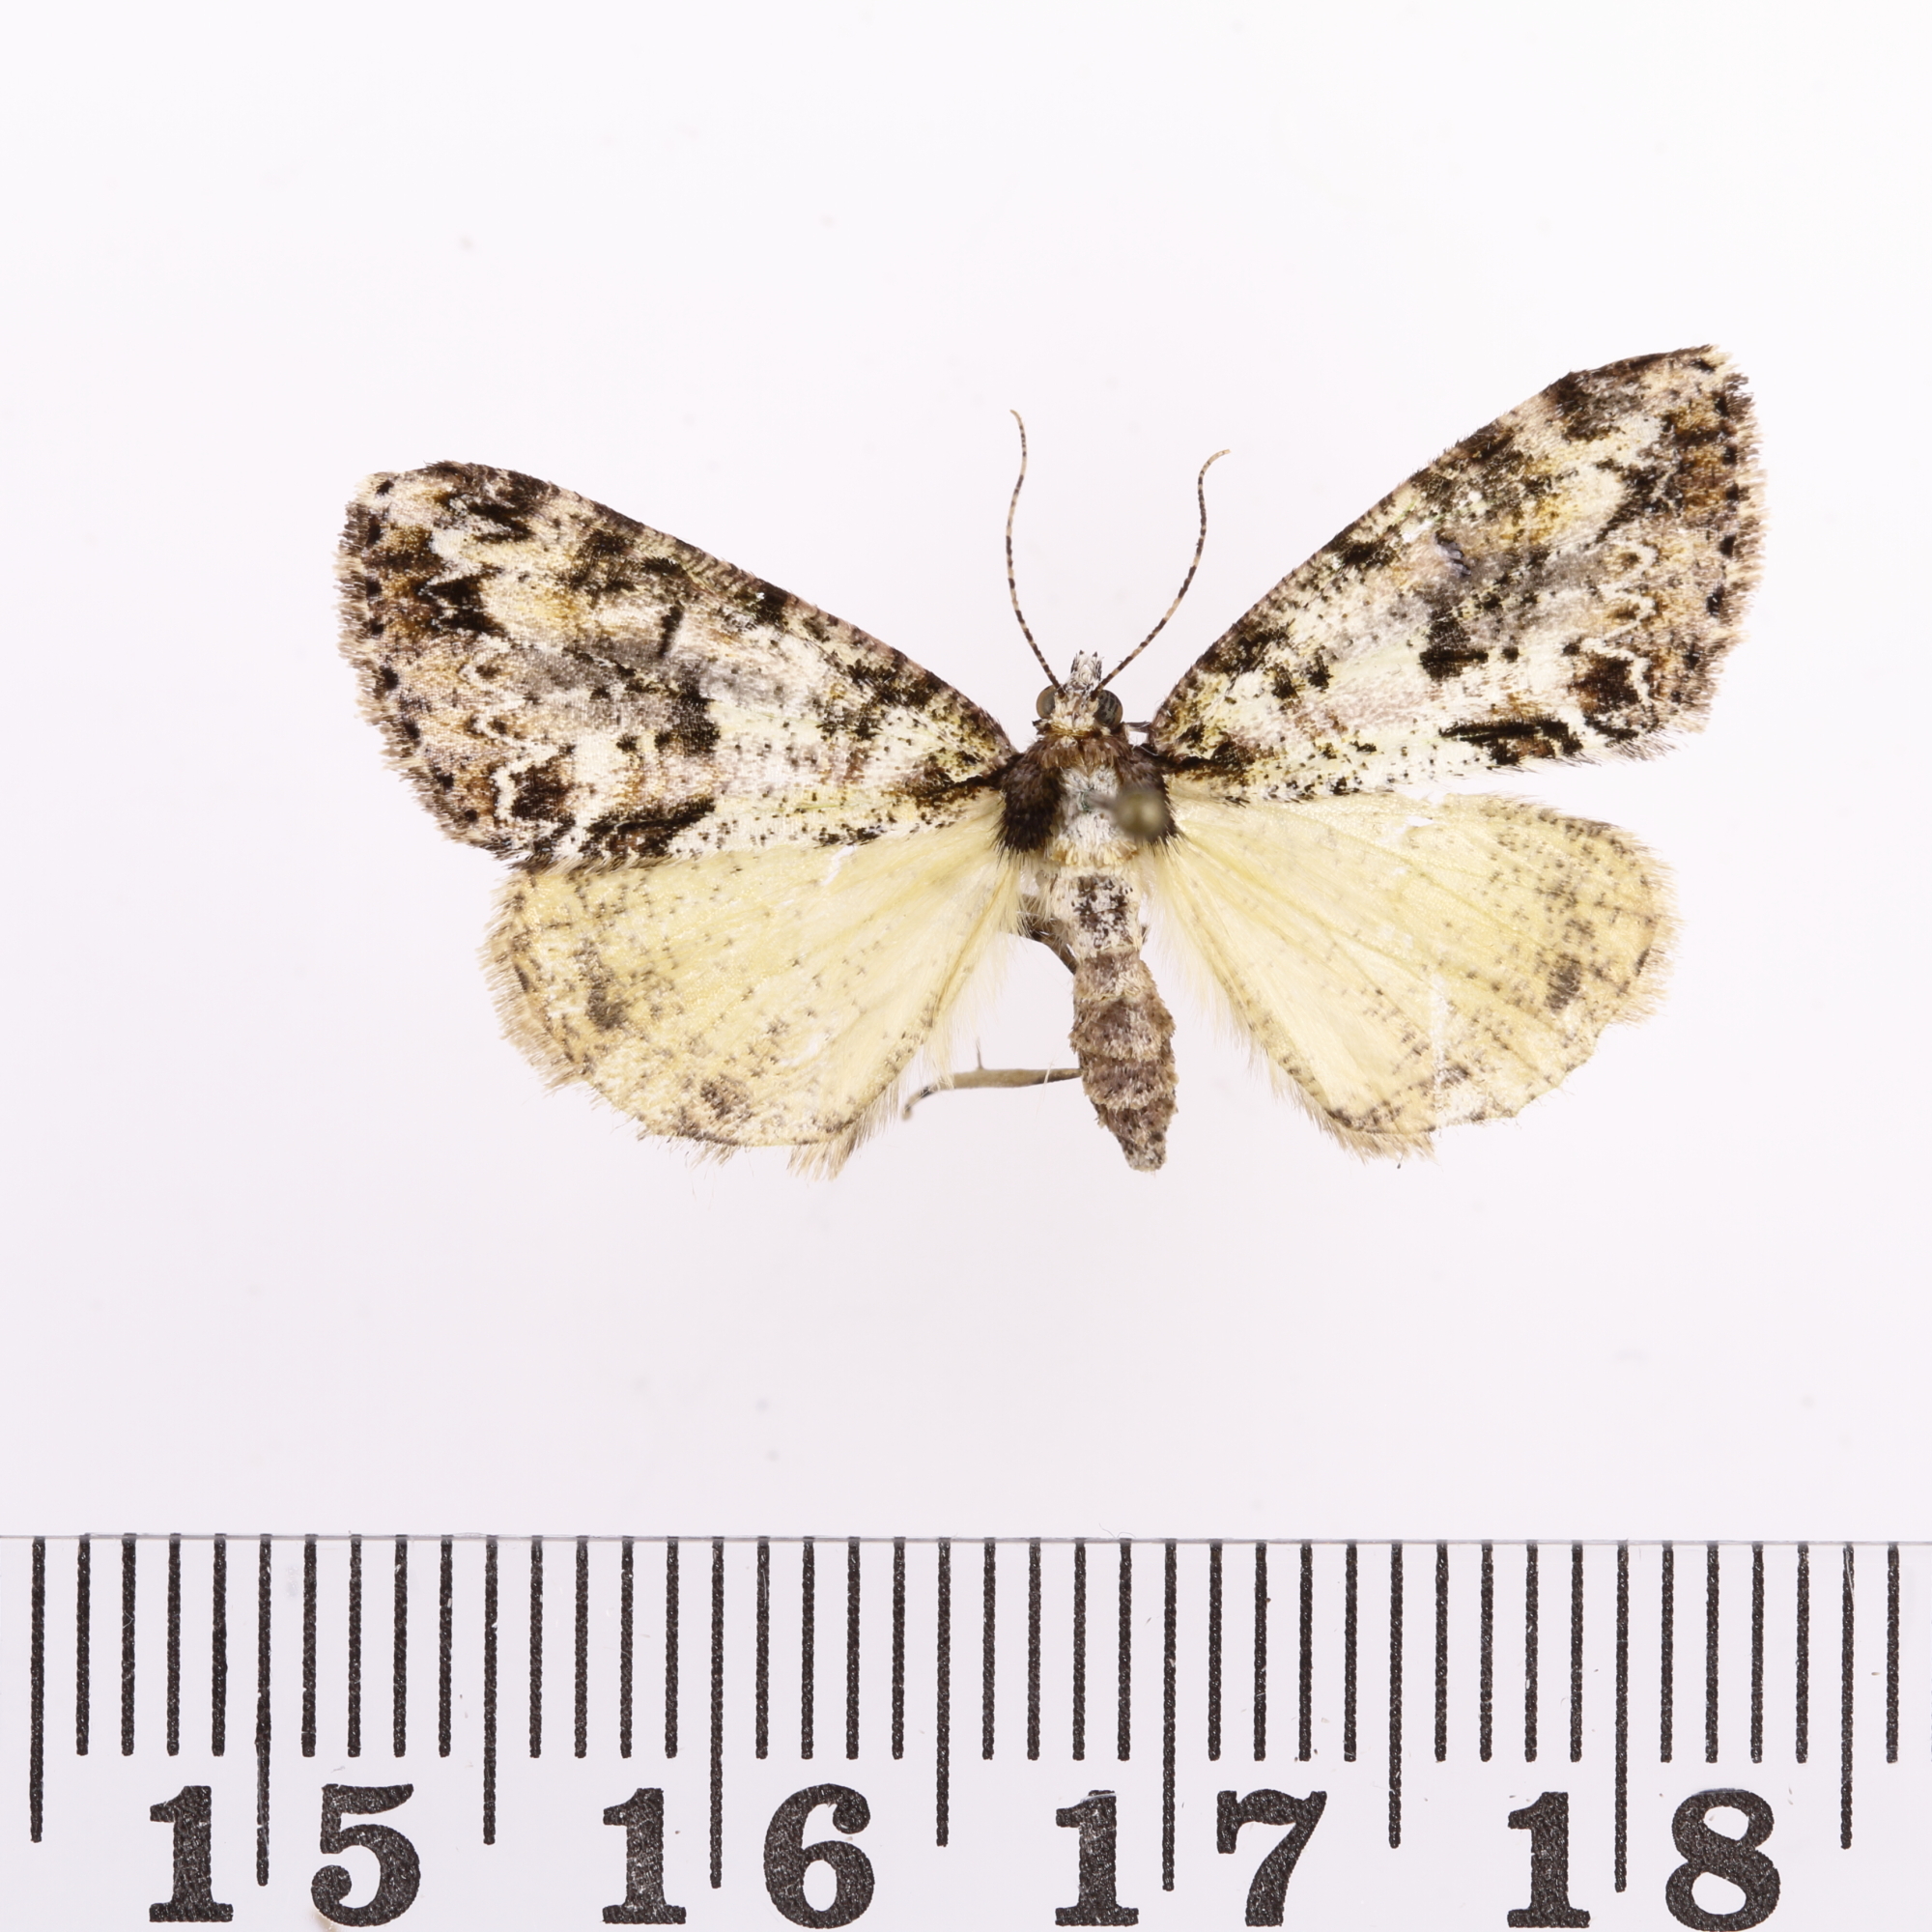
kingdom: Animalia
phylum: Arthropoda
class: Insecta
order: Lepidoptera
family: Geometridae
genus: Pseudocoremia
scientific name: Pseudocoremia suavis
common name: Common forest looper
